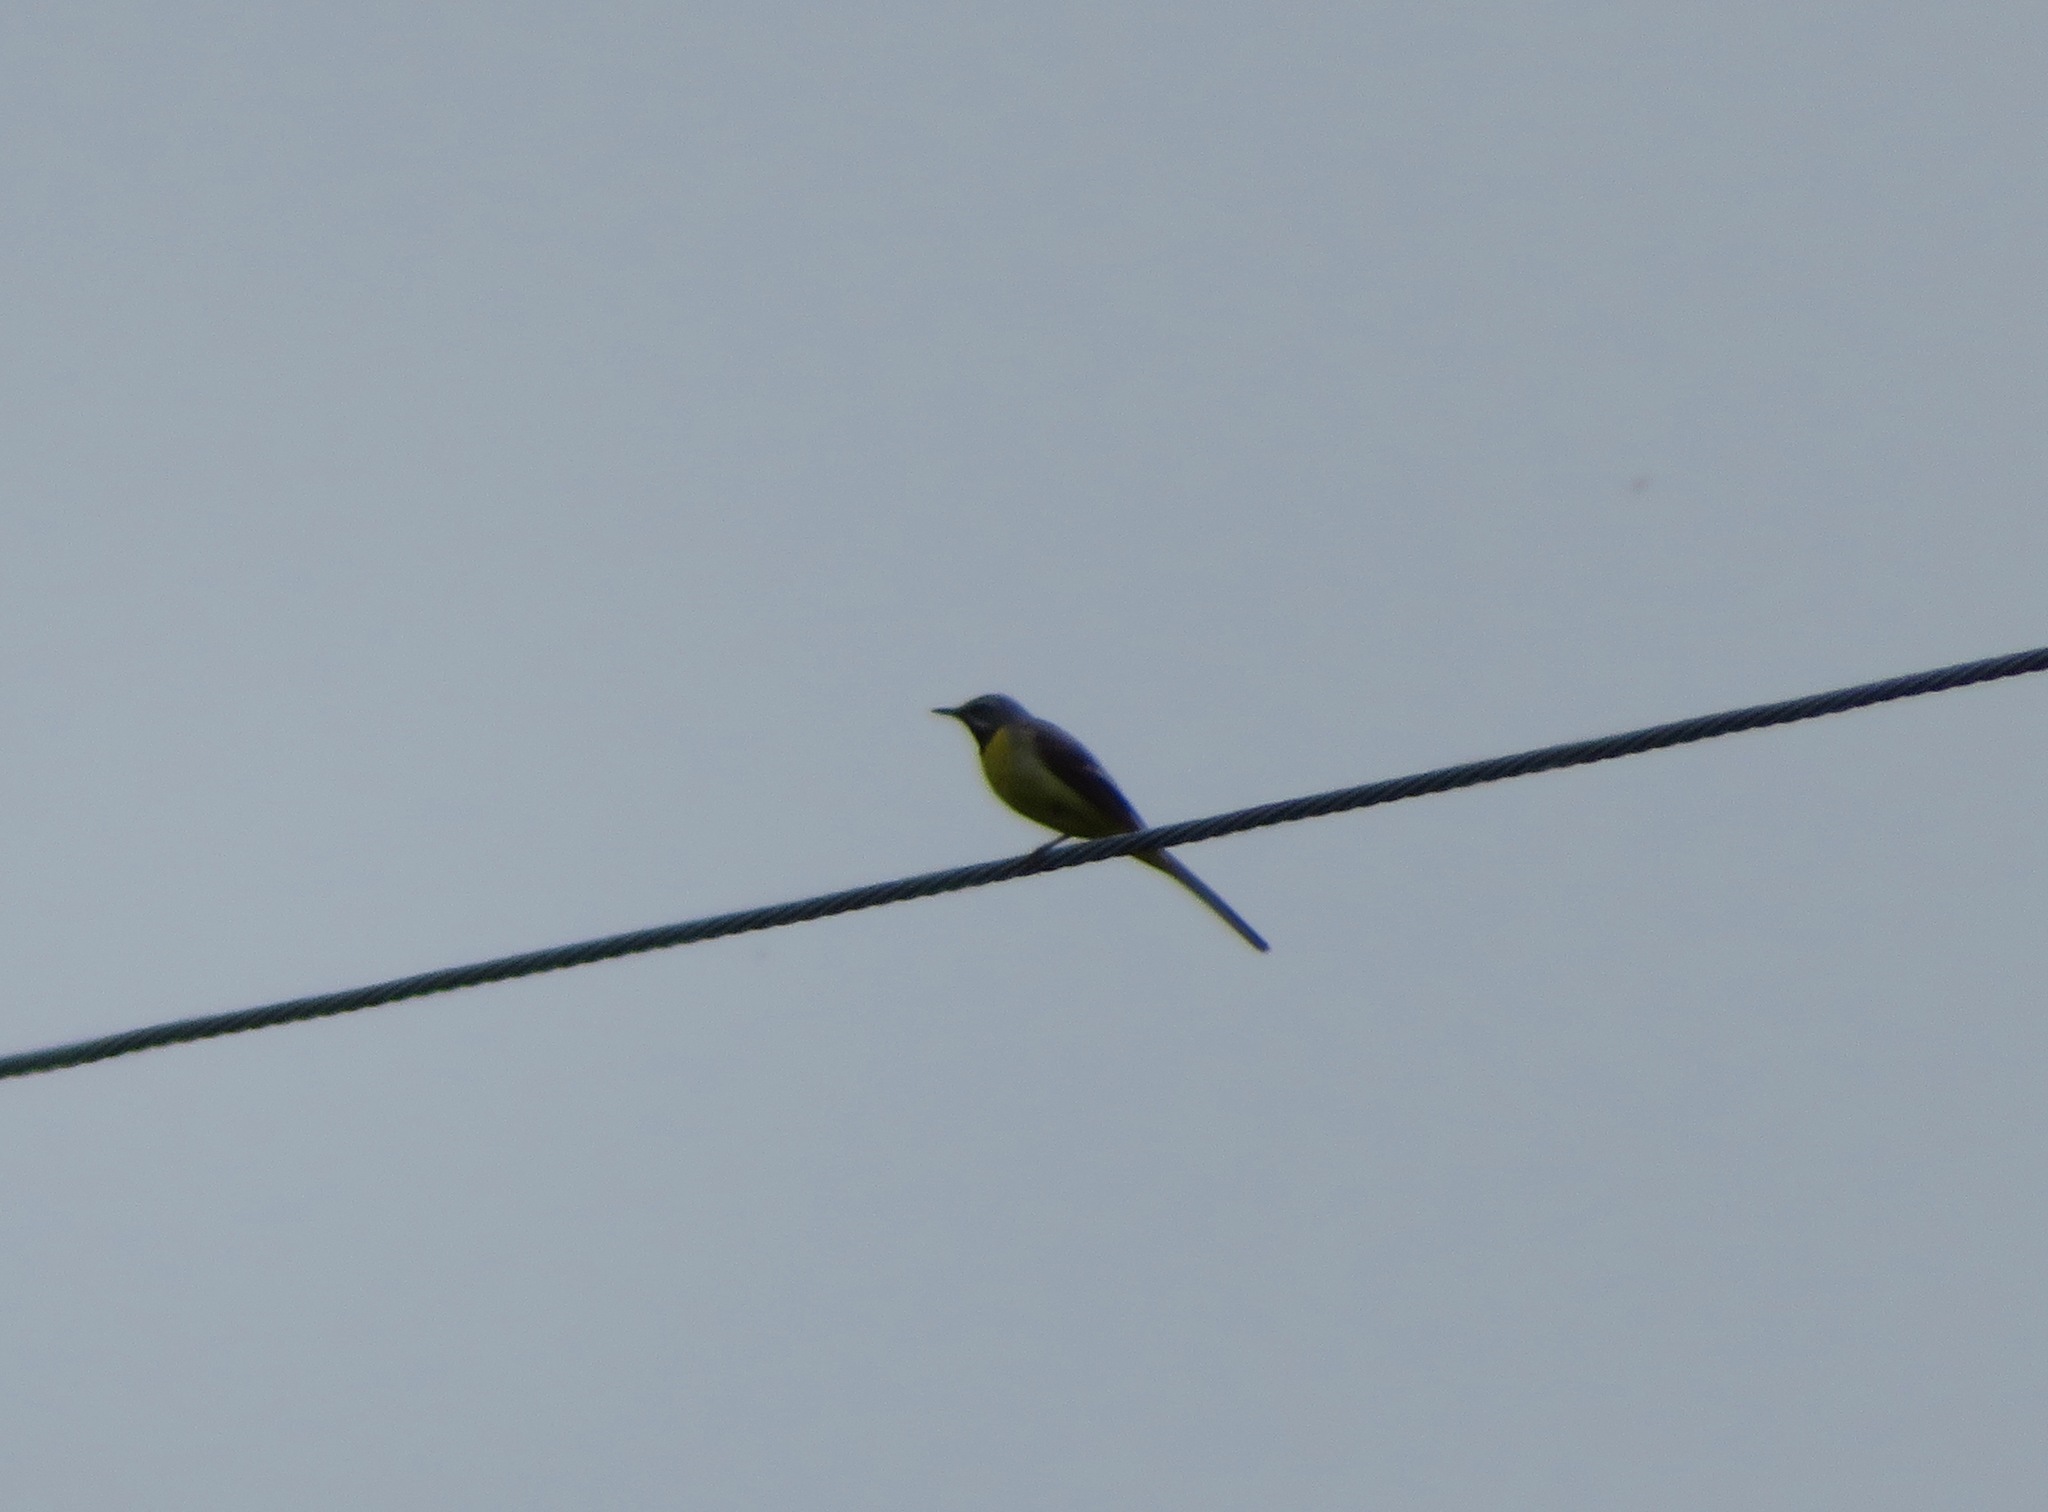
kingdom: Animalia
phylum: Chordata
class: Aves
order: Passeriformes
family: Motacillidae
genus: Motacilla
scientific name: Motacilla cinerea
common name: Grey wagtail
